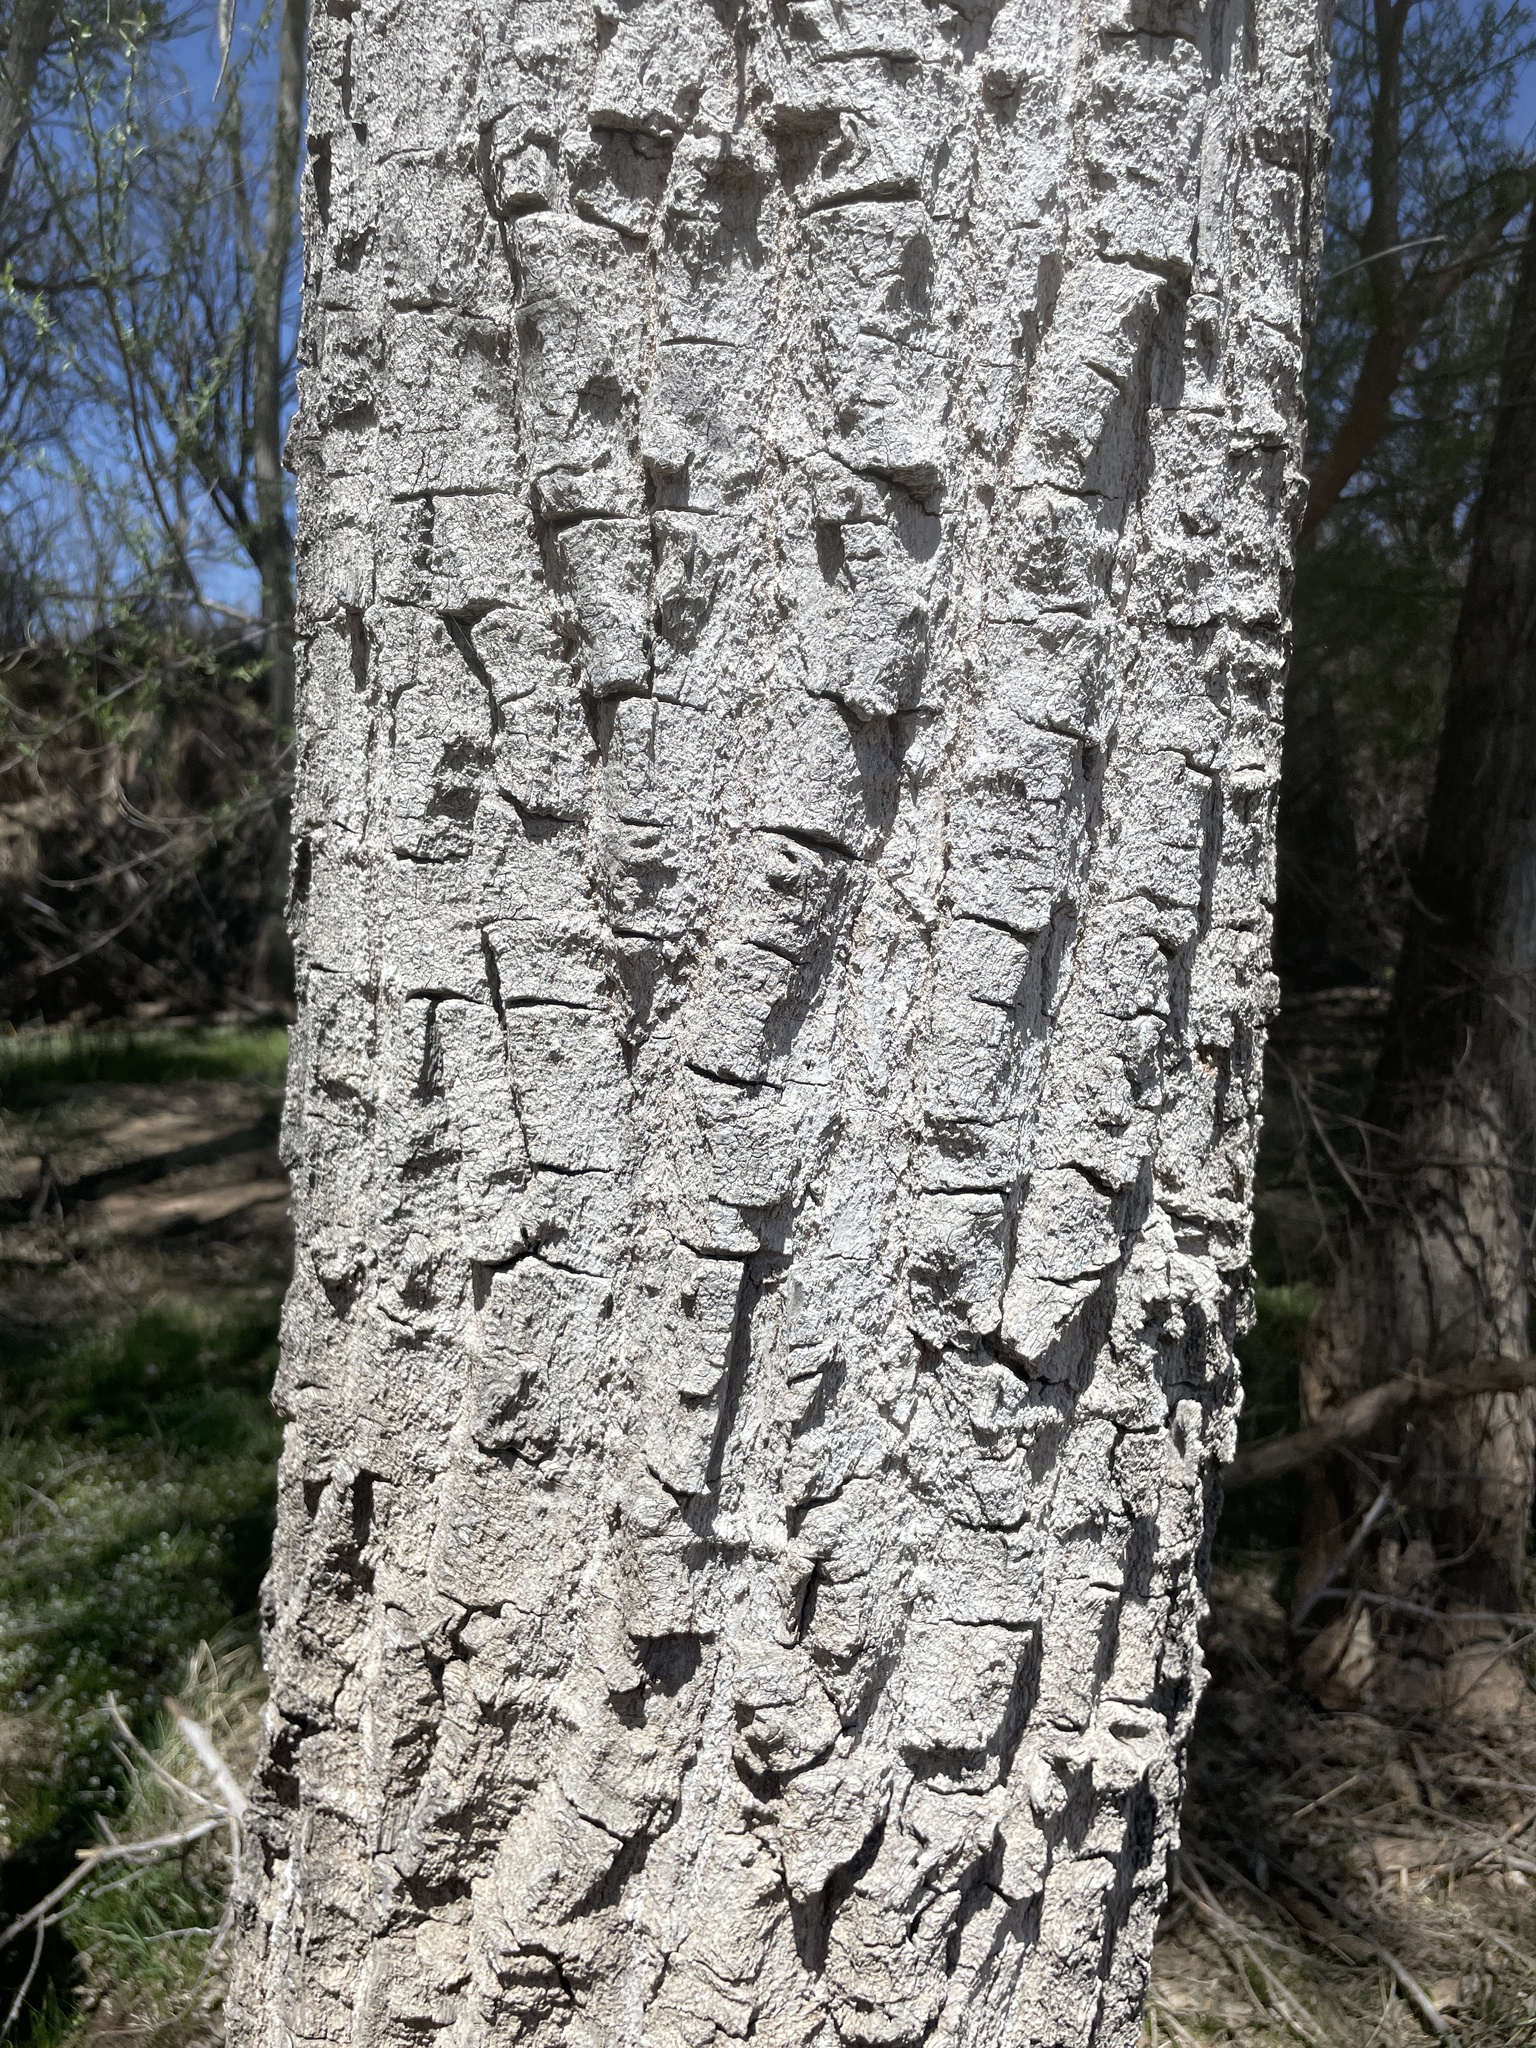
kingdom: Plantae
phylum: Tracheophyta
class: Magnoliopsida
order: Malpighiales
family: Salicaceae
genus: Populus
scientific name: Populus fremontii
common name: Fremont's cottonwood
